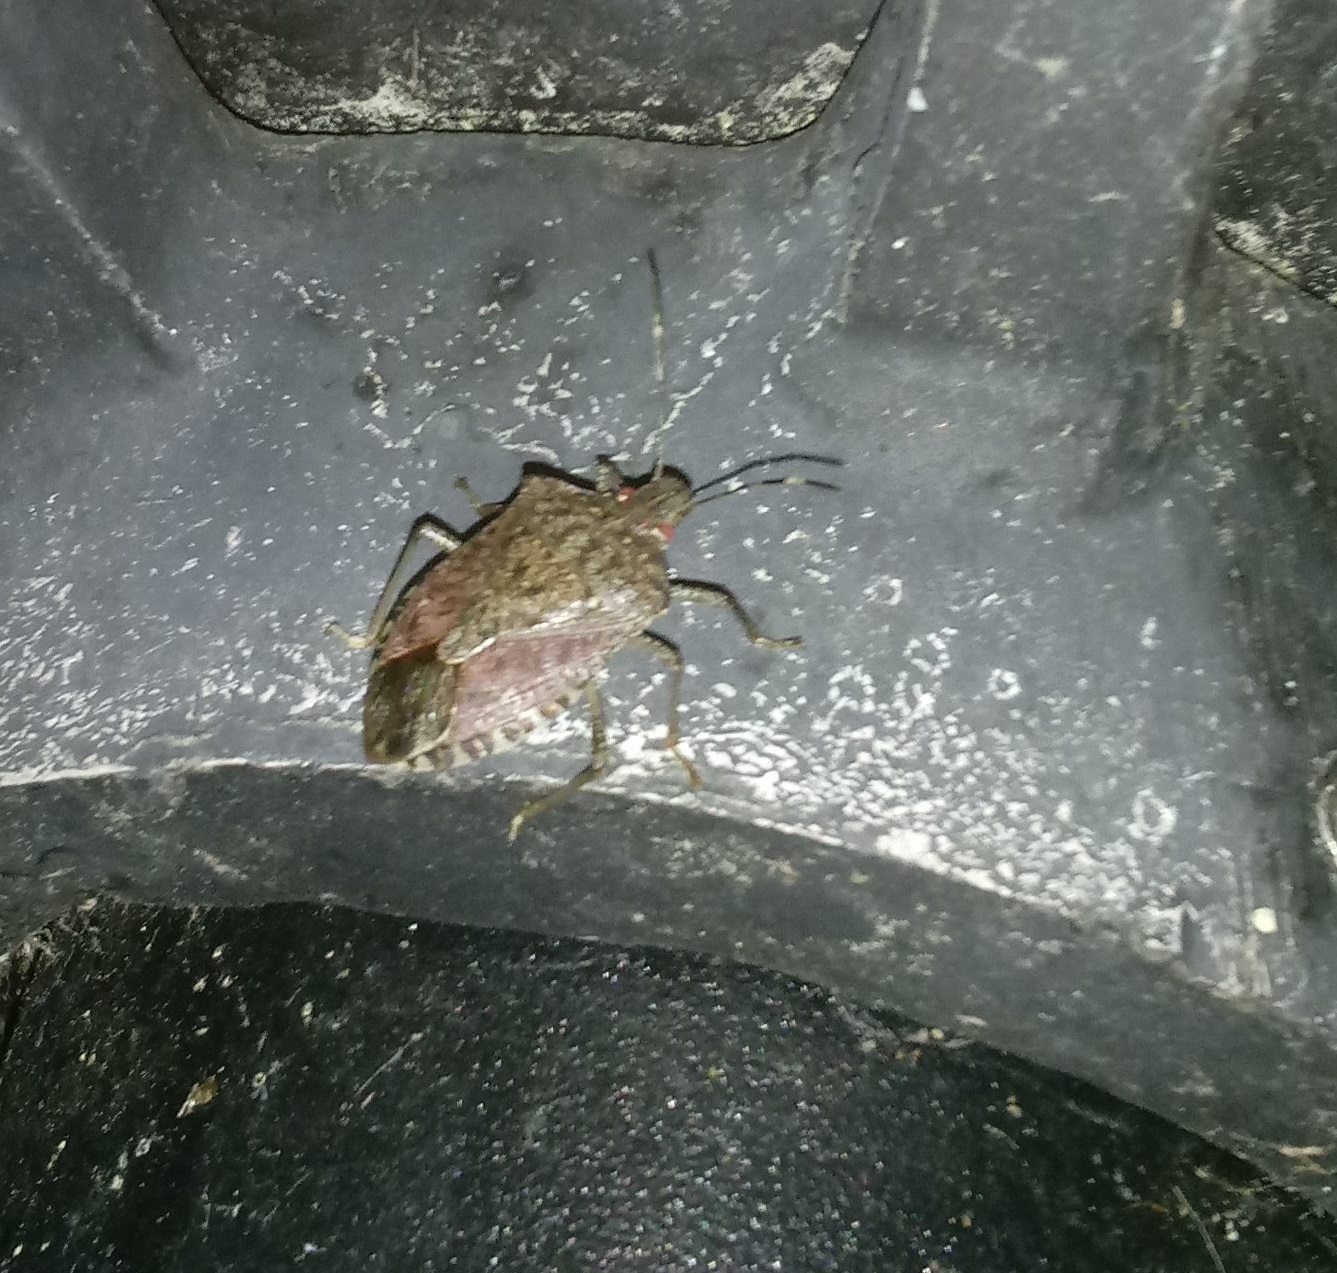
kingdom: Animalia
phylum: Arthropoda
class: Insecta
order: Hemiptera
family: Pentatomidae
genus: Halyomorpha
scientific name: Halyomorpha halys
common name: Brown marmorated stink bug
